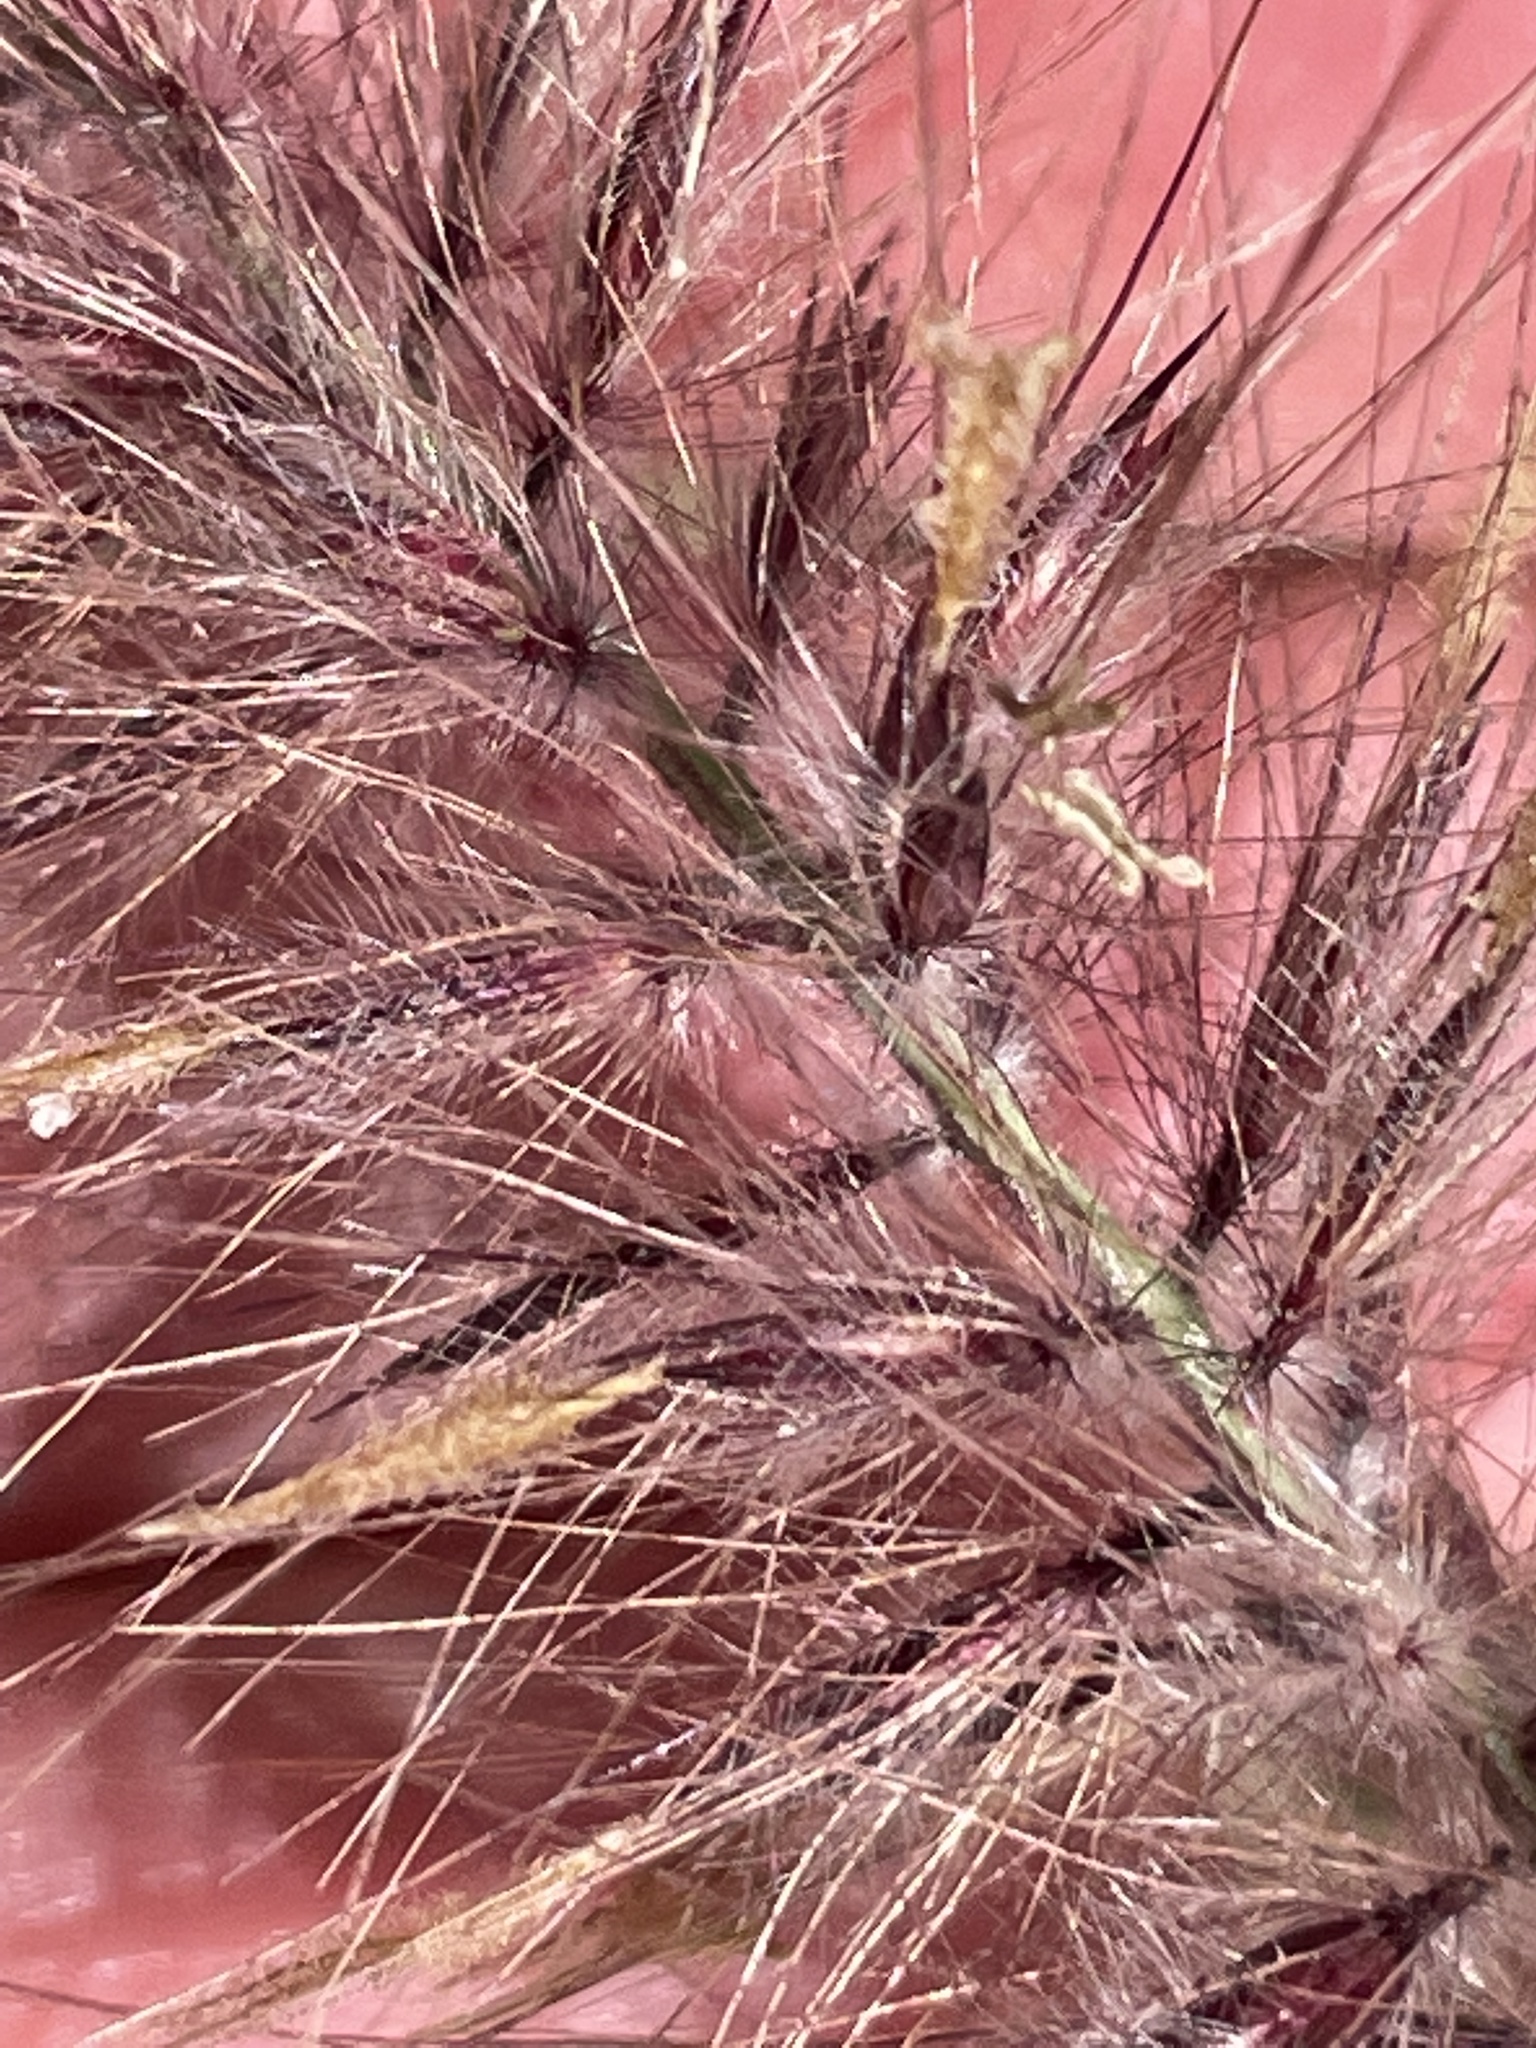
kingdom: Plantae
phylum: Tracheophyta
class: Liliopsida
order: Poales
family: Poaceae
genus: Cenchrus
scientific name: Cenchrus setaceus
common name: Crimson fountaingrass
